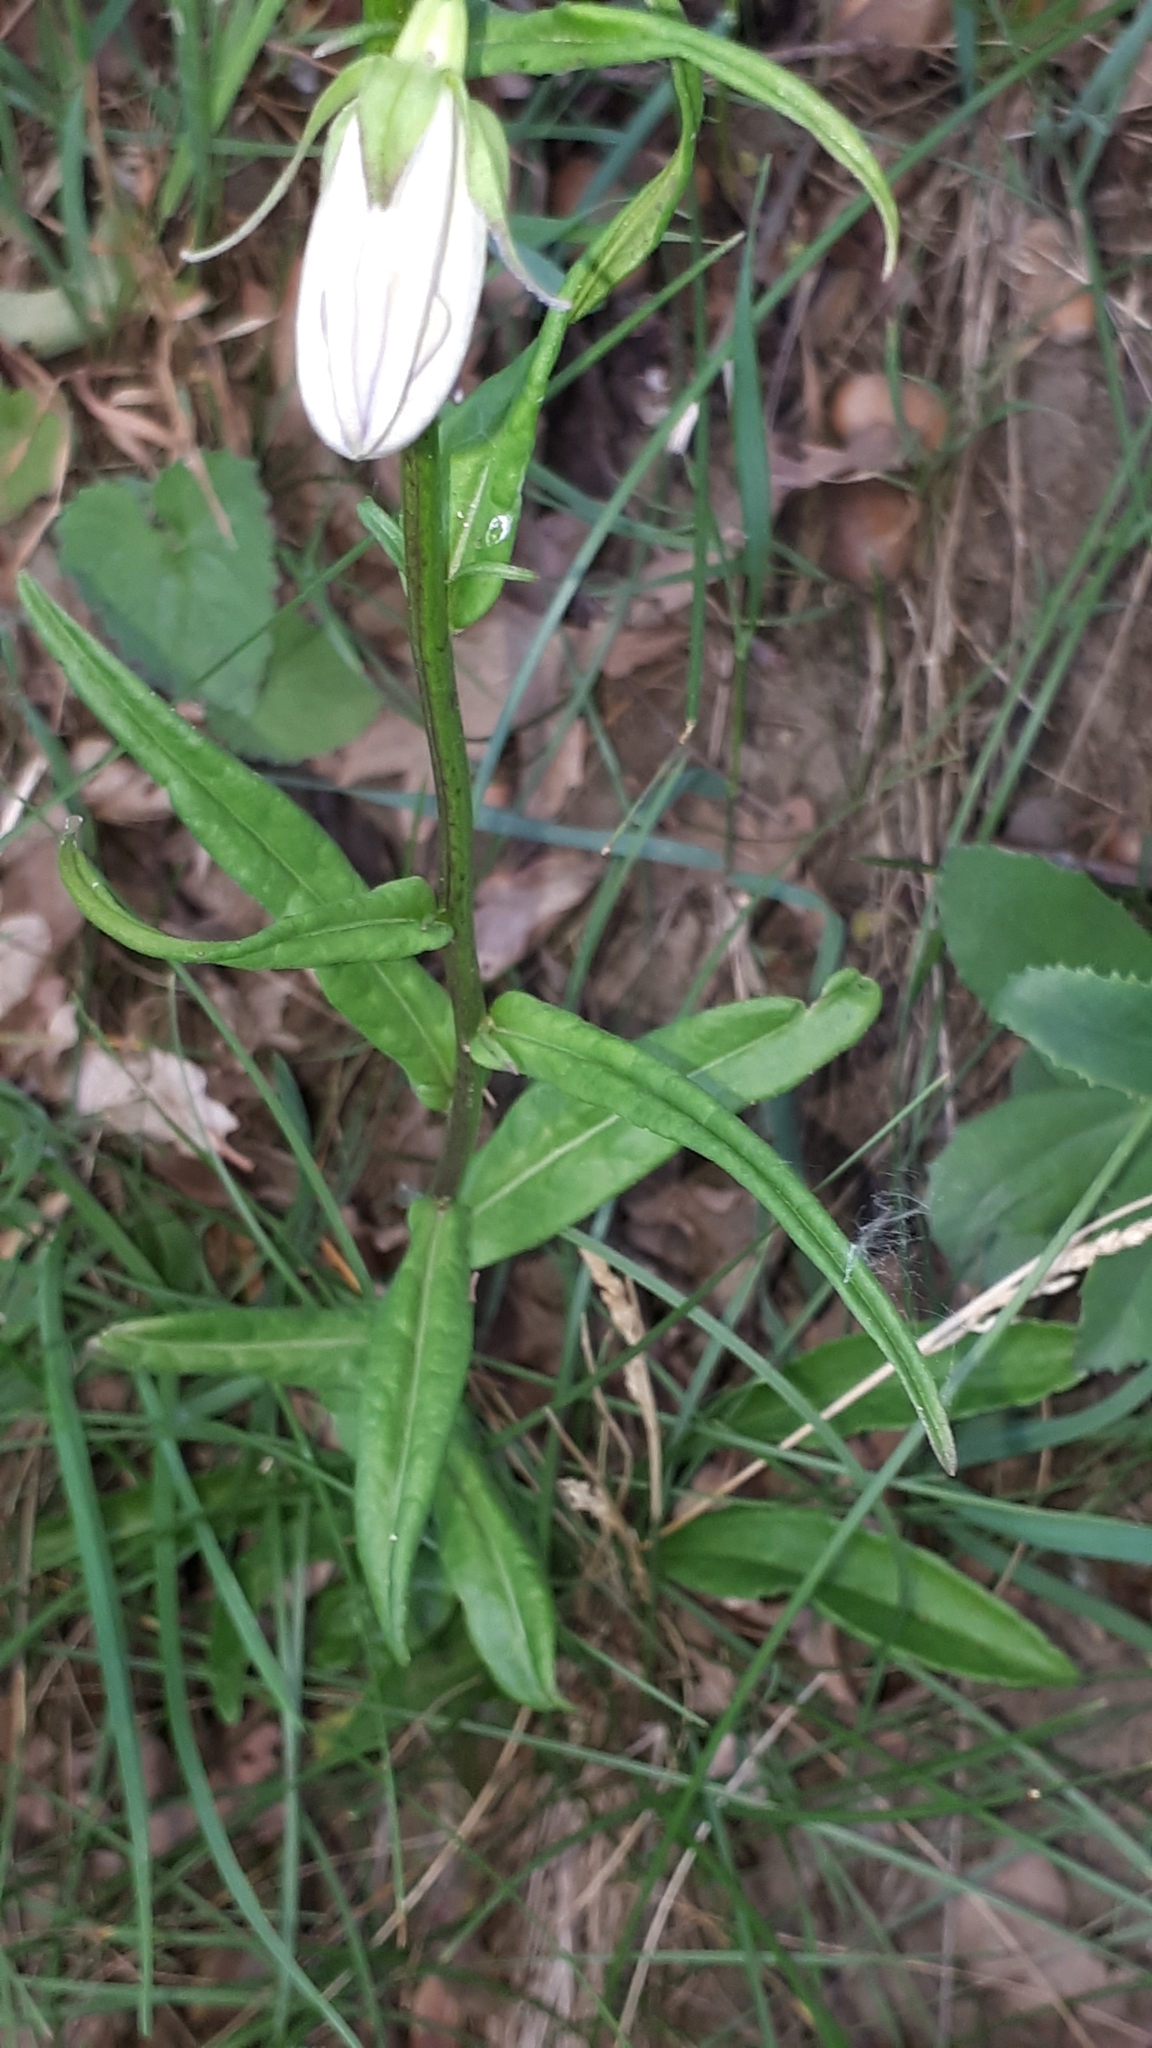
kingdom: Plantae
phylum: Tracheophyta
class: Magnoliopsida
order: Asterales
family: Campanulaceae
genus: Campanula
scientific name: Campanula persicifolia
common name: Peach-leaved bellflower
